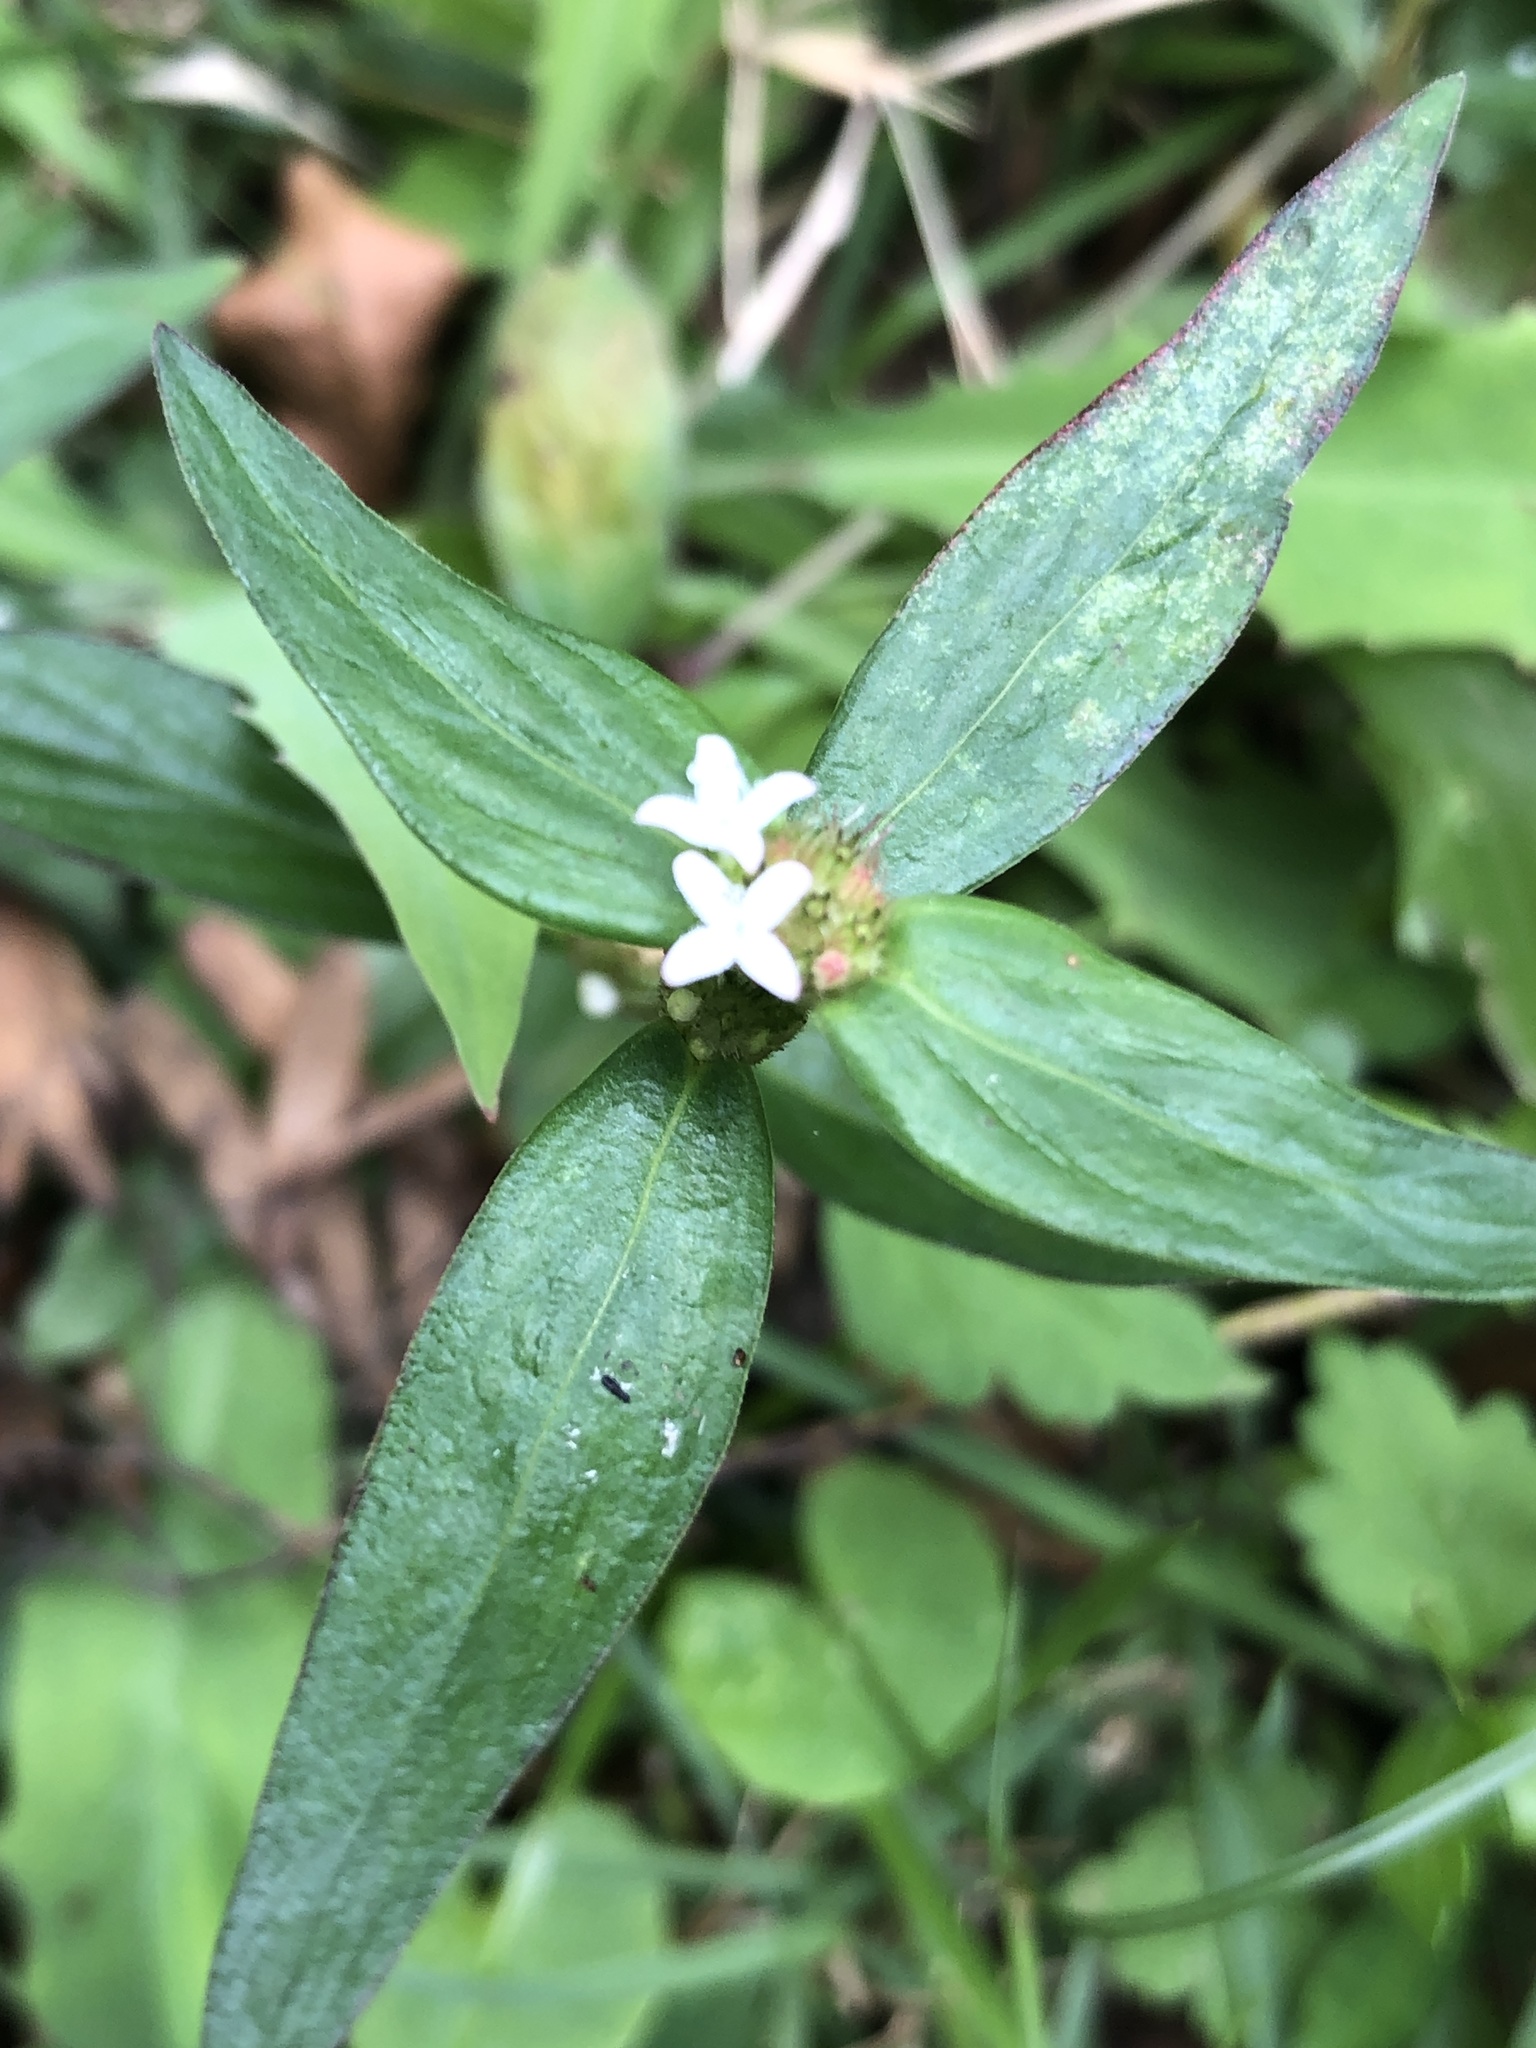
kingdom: Plantae
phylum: Tracheophyta
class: Magnoliopsida
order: Gentianales
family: Rubiaceae
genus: Spermacoce
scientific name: Spermacoce remota
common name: Woodland false buttonweed
